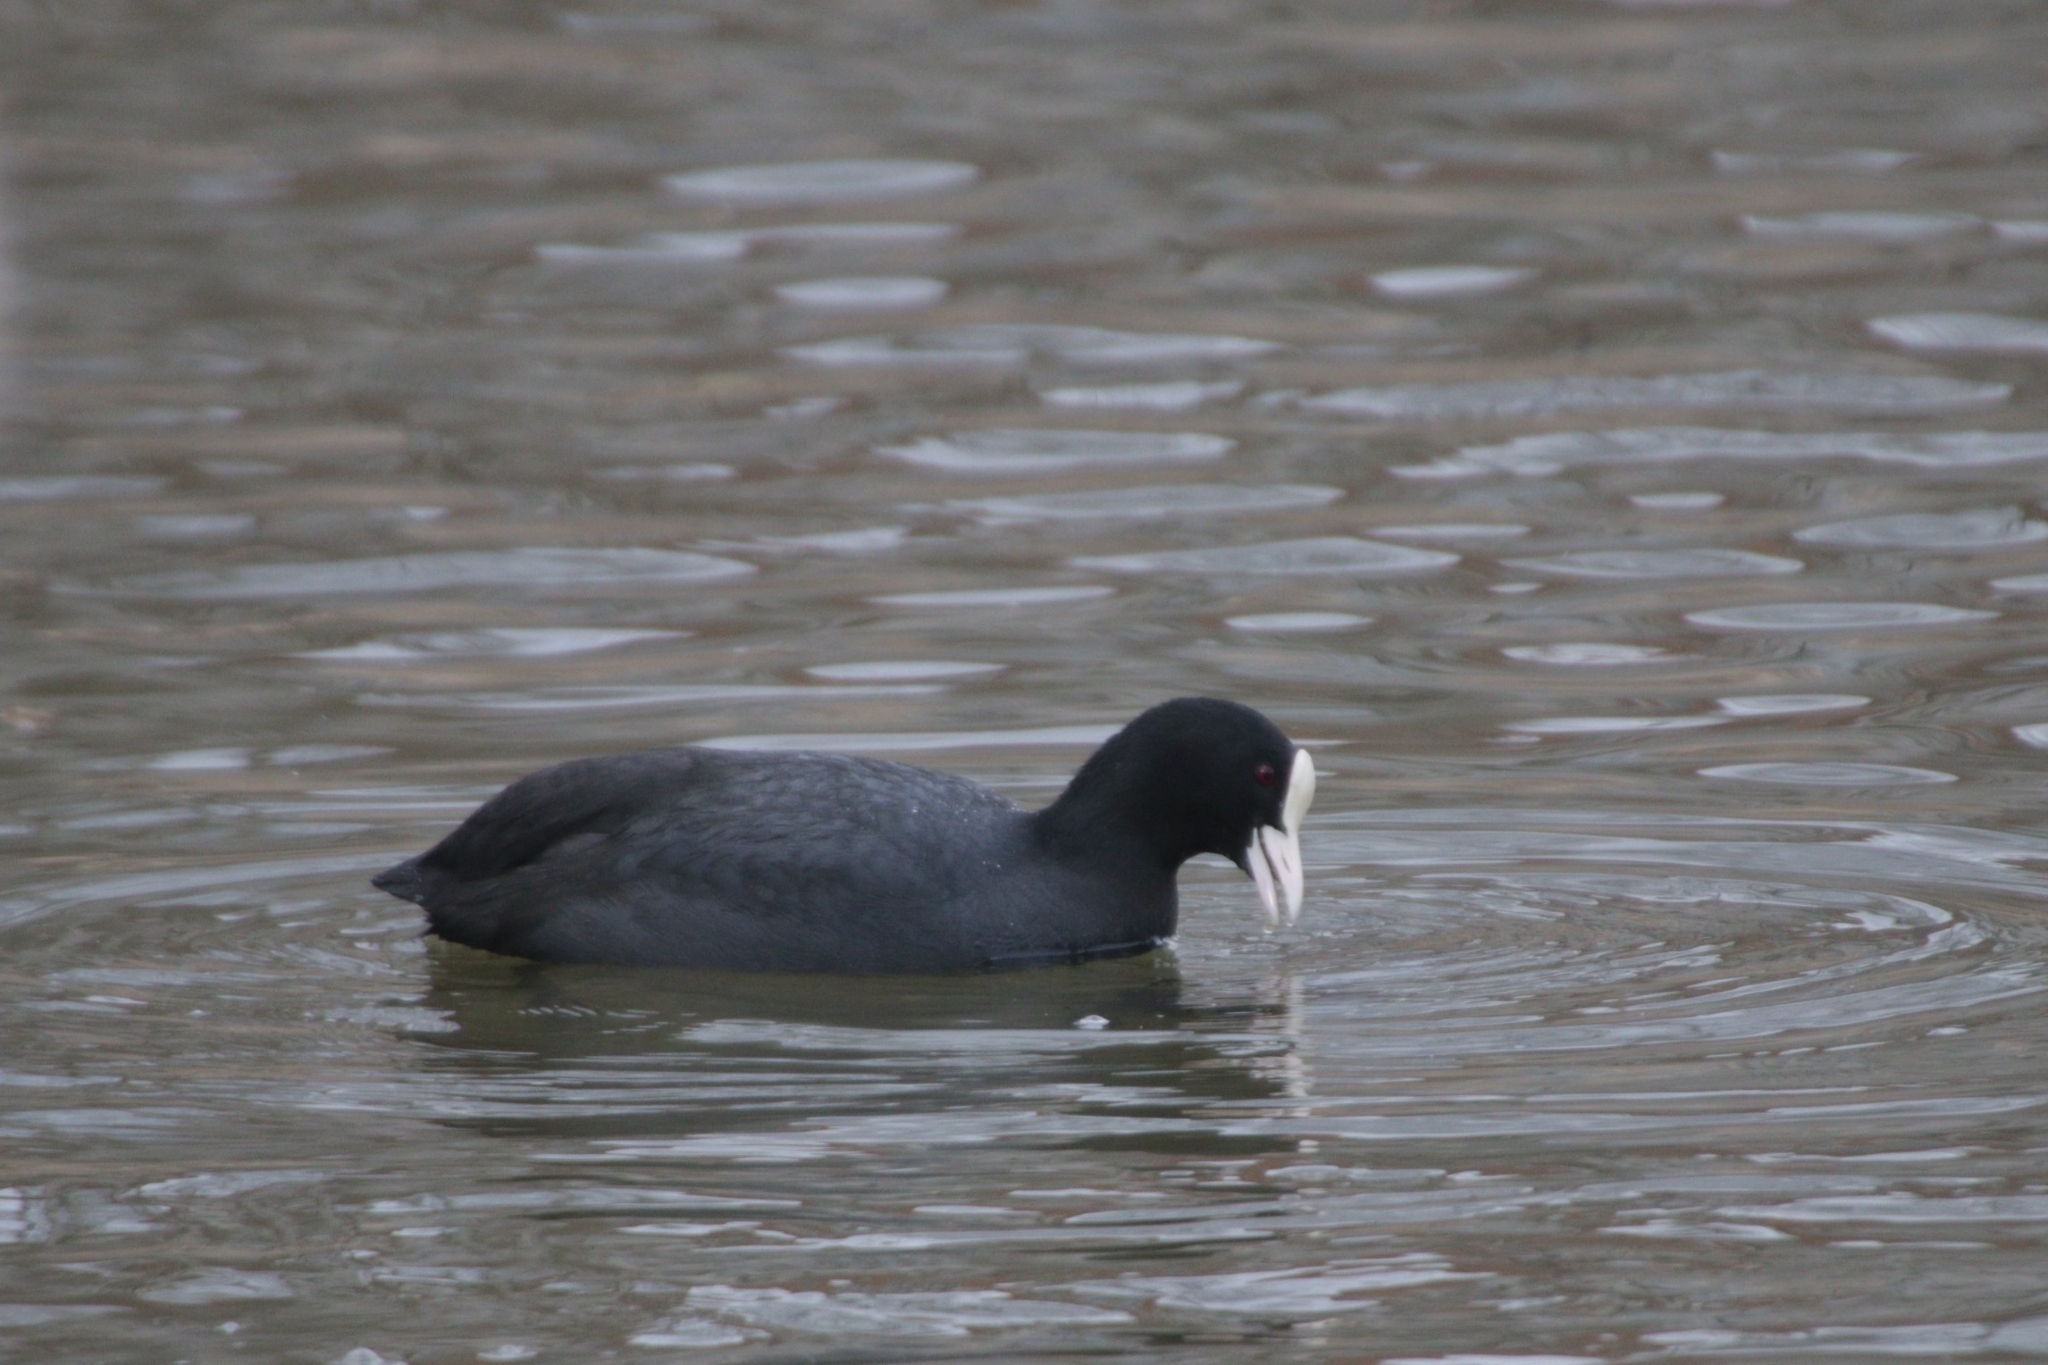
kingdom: Animalia
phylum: Chordata
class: Aves
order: Gruiformes
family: Rallidae
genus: Fulica
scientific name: Fulica atra
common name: Eurasian coot
